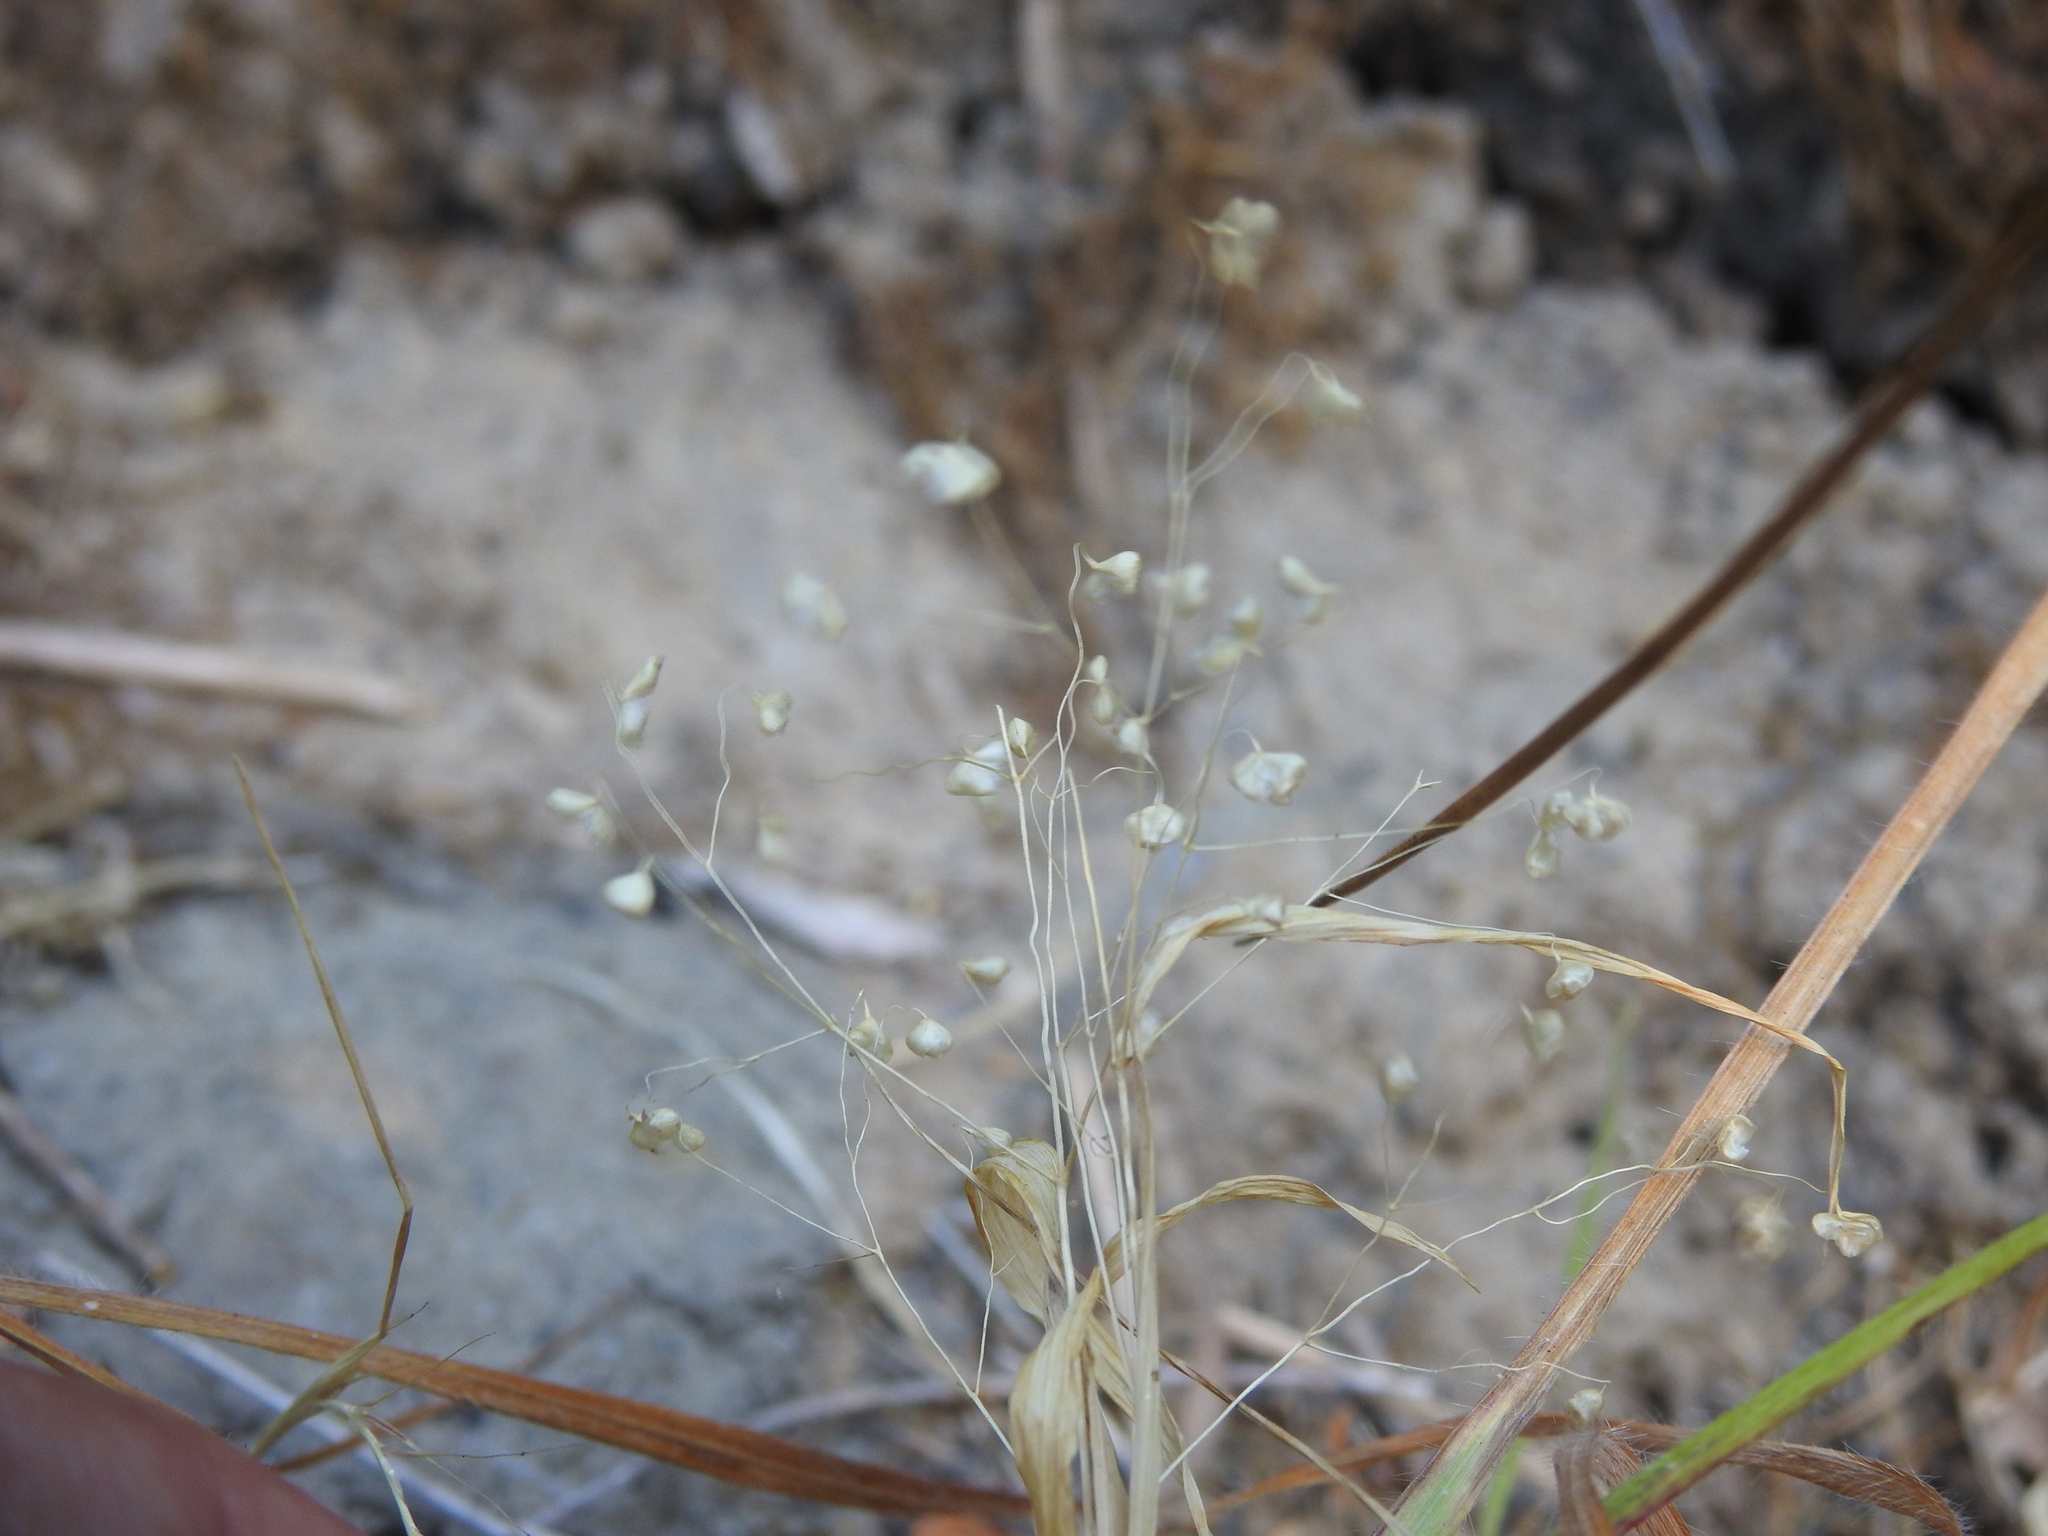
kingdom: Plantae
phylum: Tracheophyta
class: Liliopsida
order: Poales
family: Poaceae
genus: Briza
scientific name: Briza minor
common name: Lesser quaking-grass
